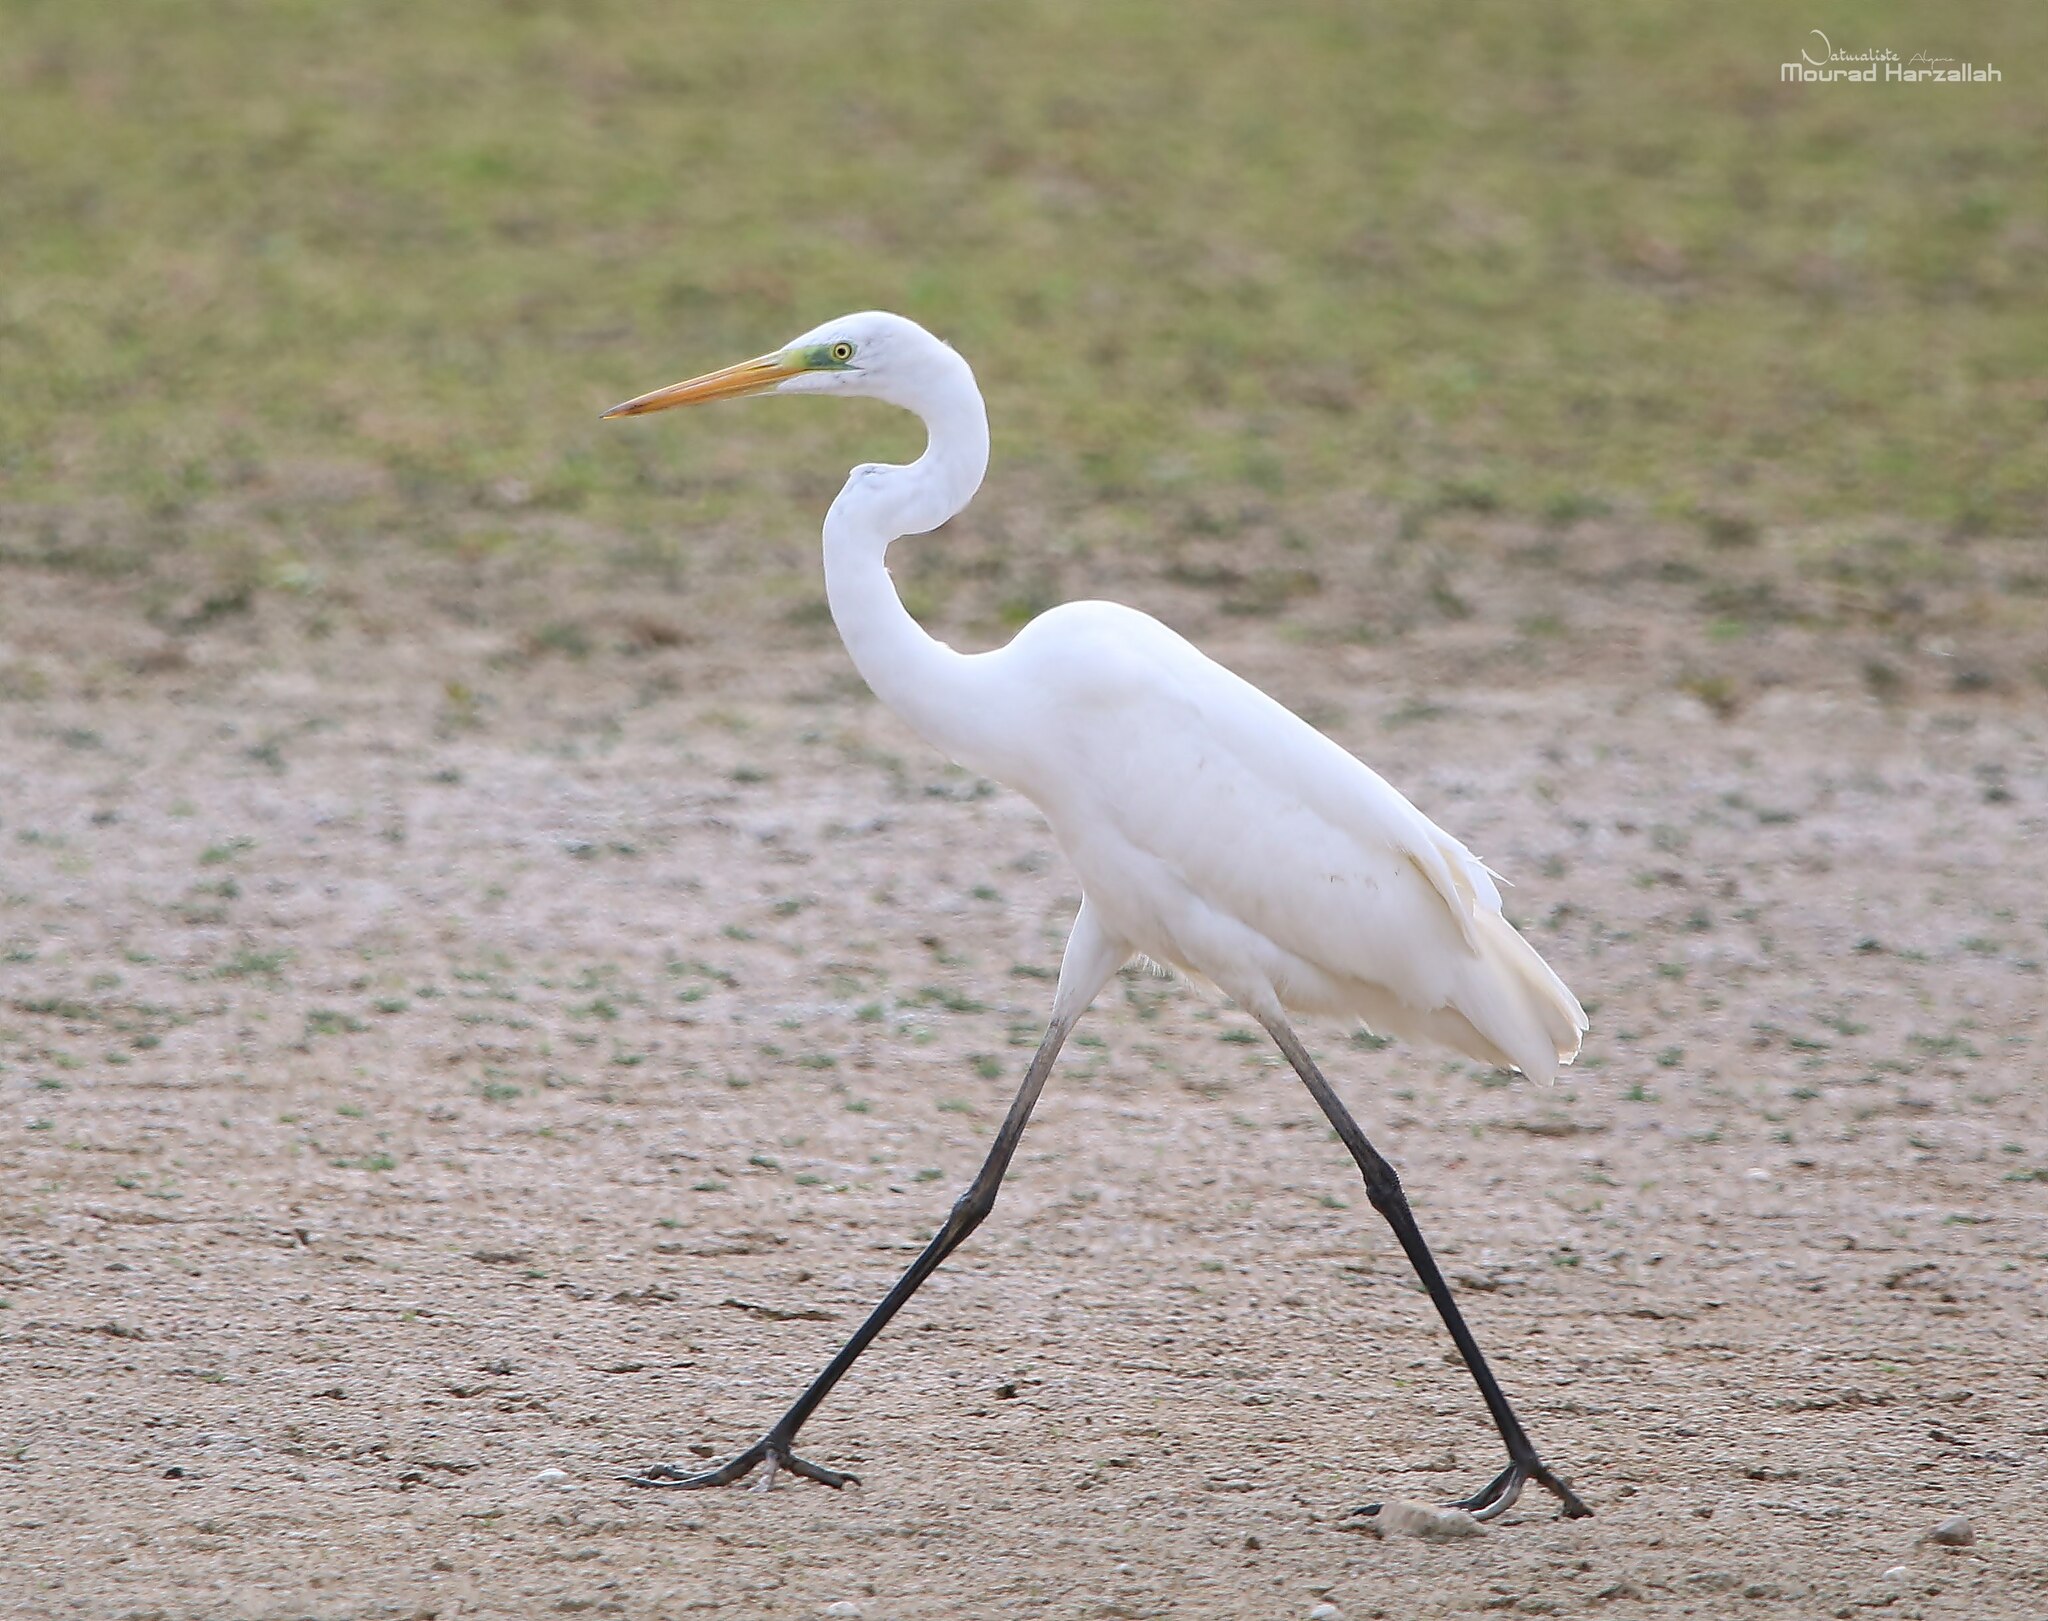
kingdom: Animalia
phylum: Chordata
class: Aves
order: Pelecaniformes
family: Ardeidae
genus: Ardea
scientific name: Ardea alba
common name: Great egret
